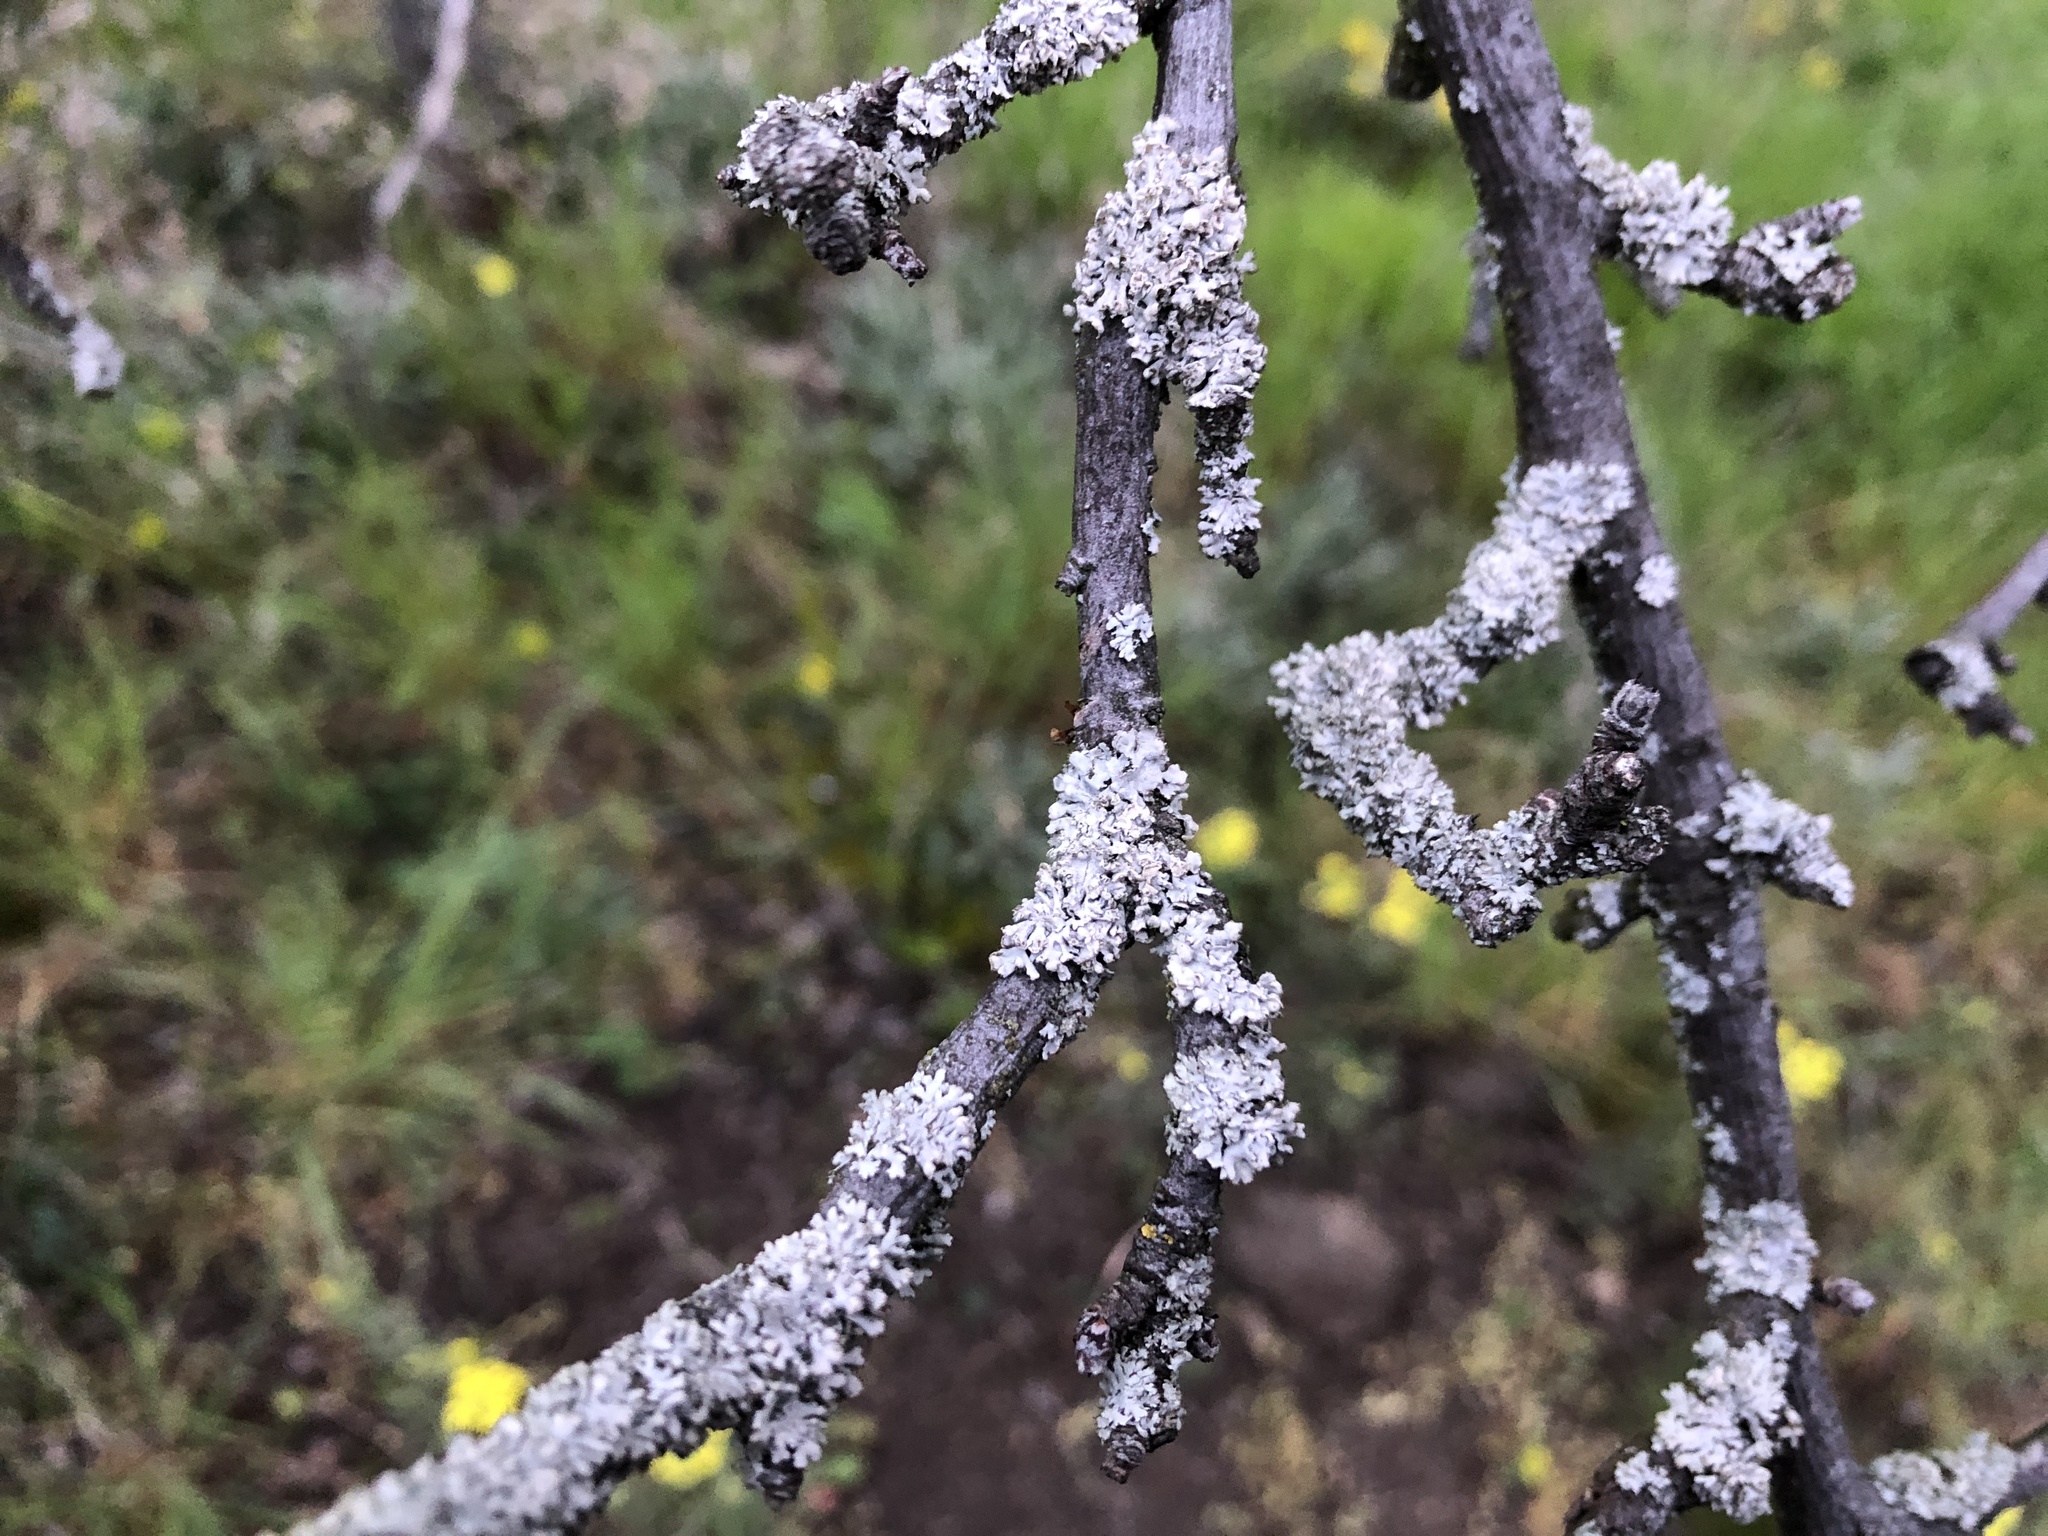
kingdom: Fungi
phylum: Ascomycota
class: Lecanoromycetes
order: Caliciales
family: Physciaceae
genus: Physcia
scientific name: Physcia adscendens
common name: Hooded rosette lichen
